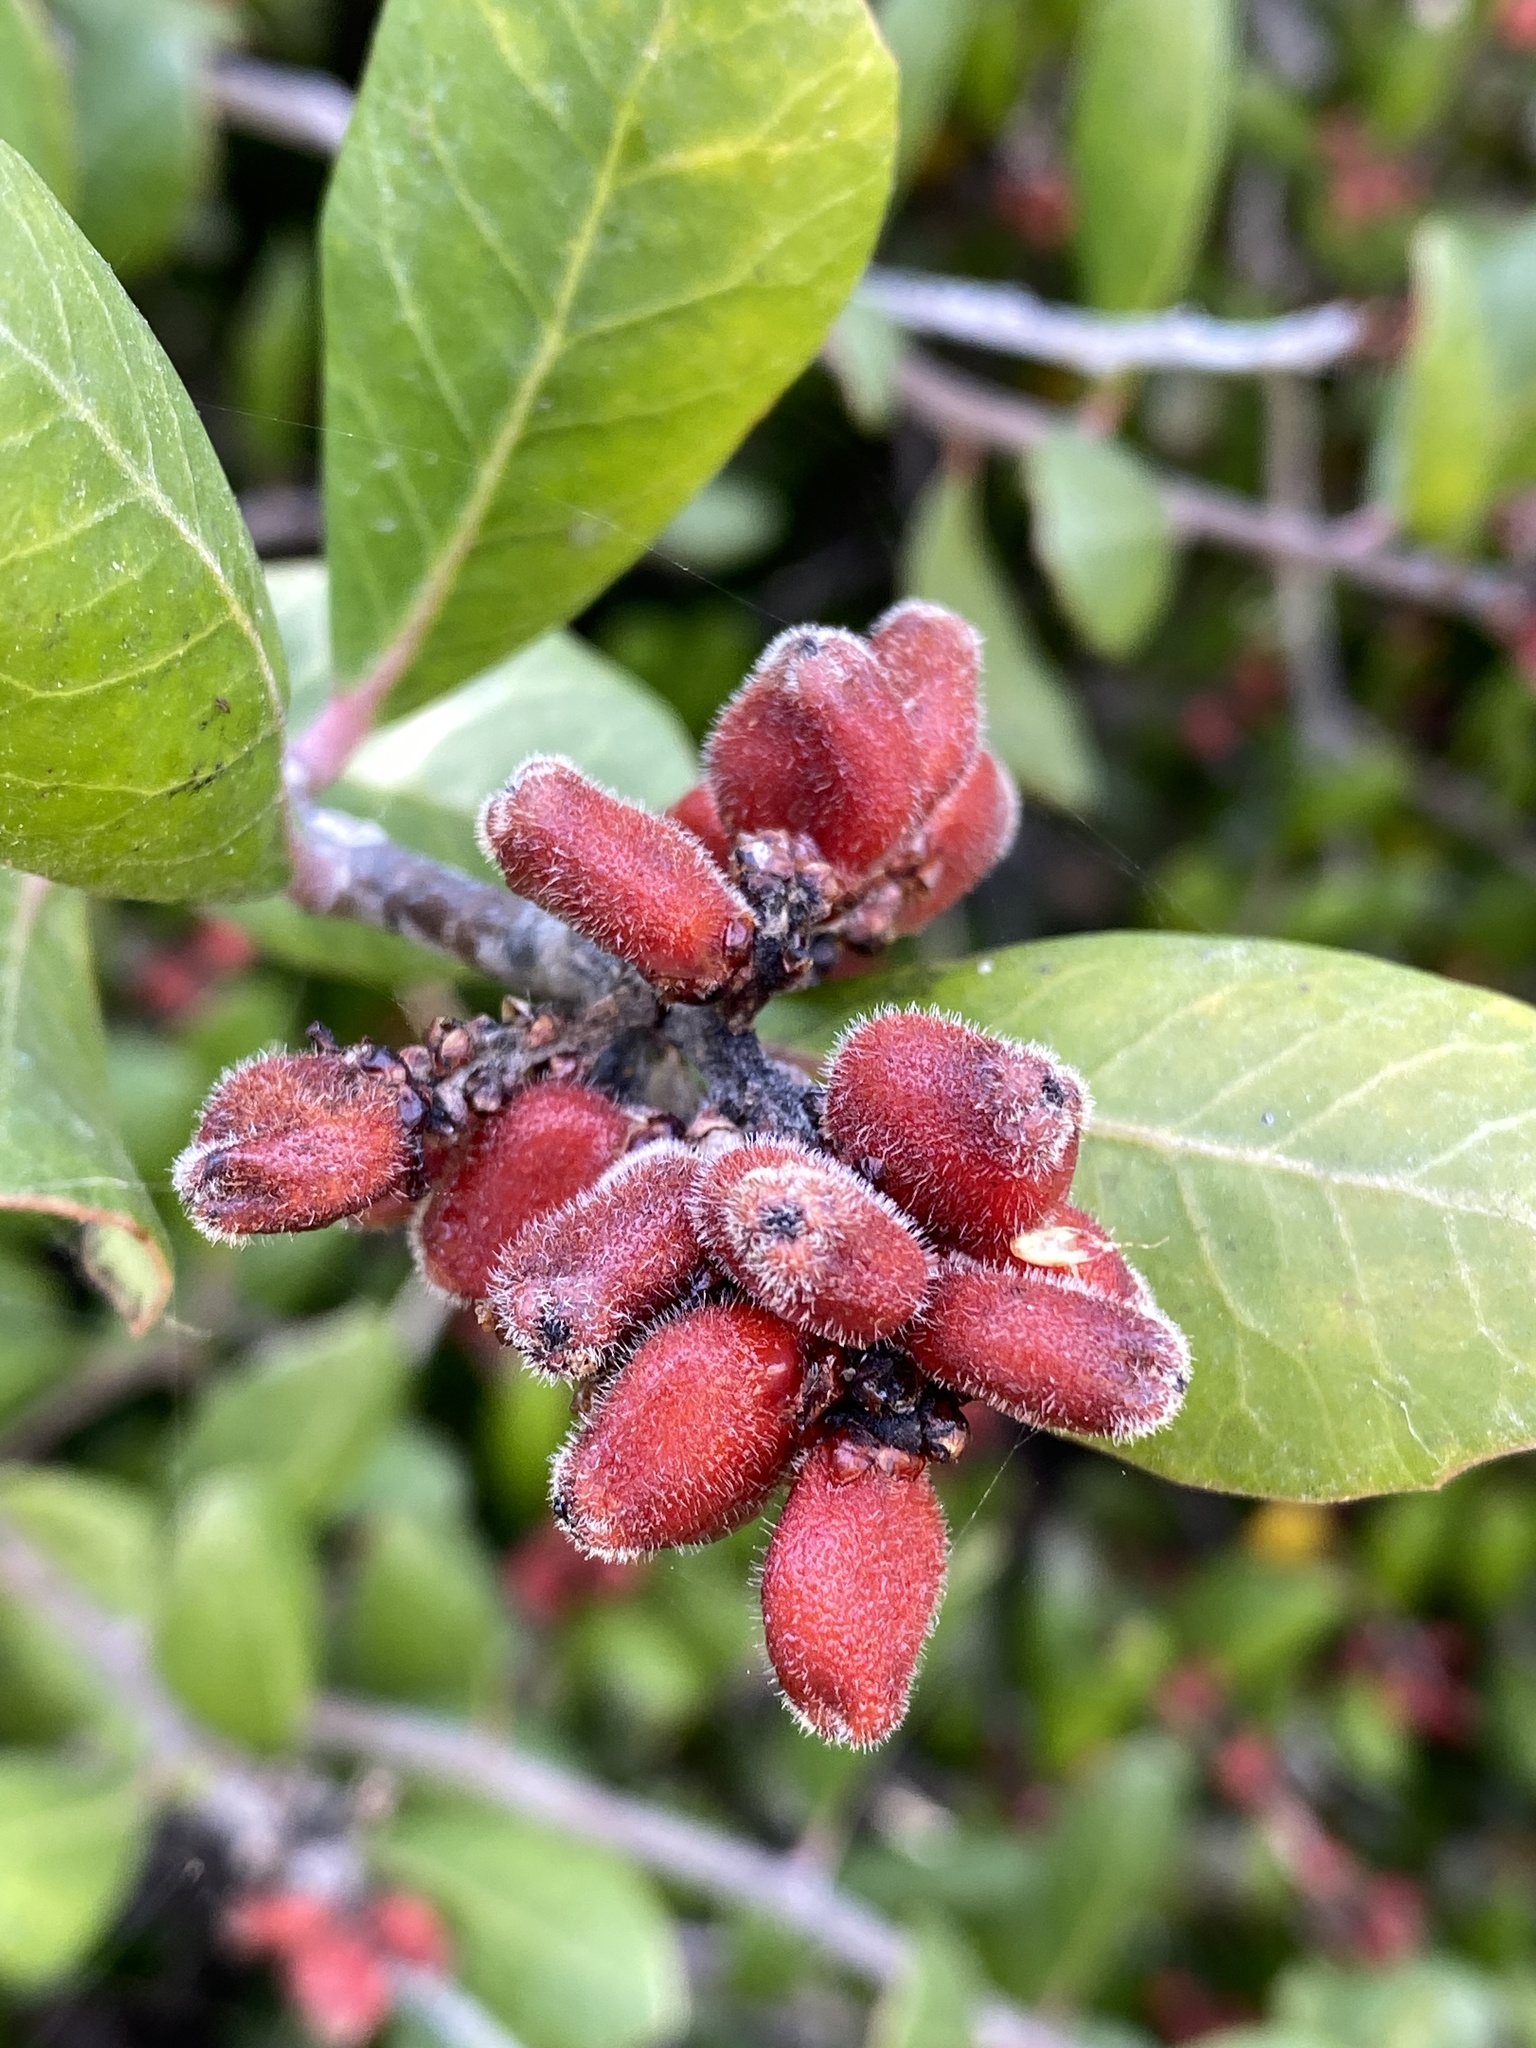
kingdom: Plantae
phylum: Tracheophyta
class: Magnoliopsida
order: Sapindales
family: Anacardiaceae
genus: Rhus
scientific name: Rhus integrifolia
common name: Lemonade sumac
